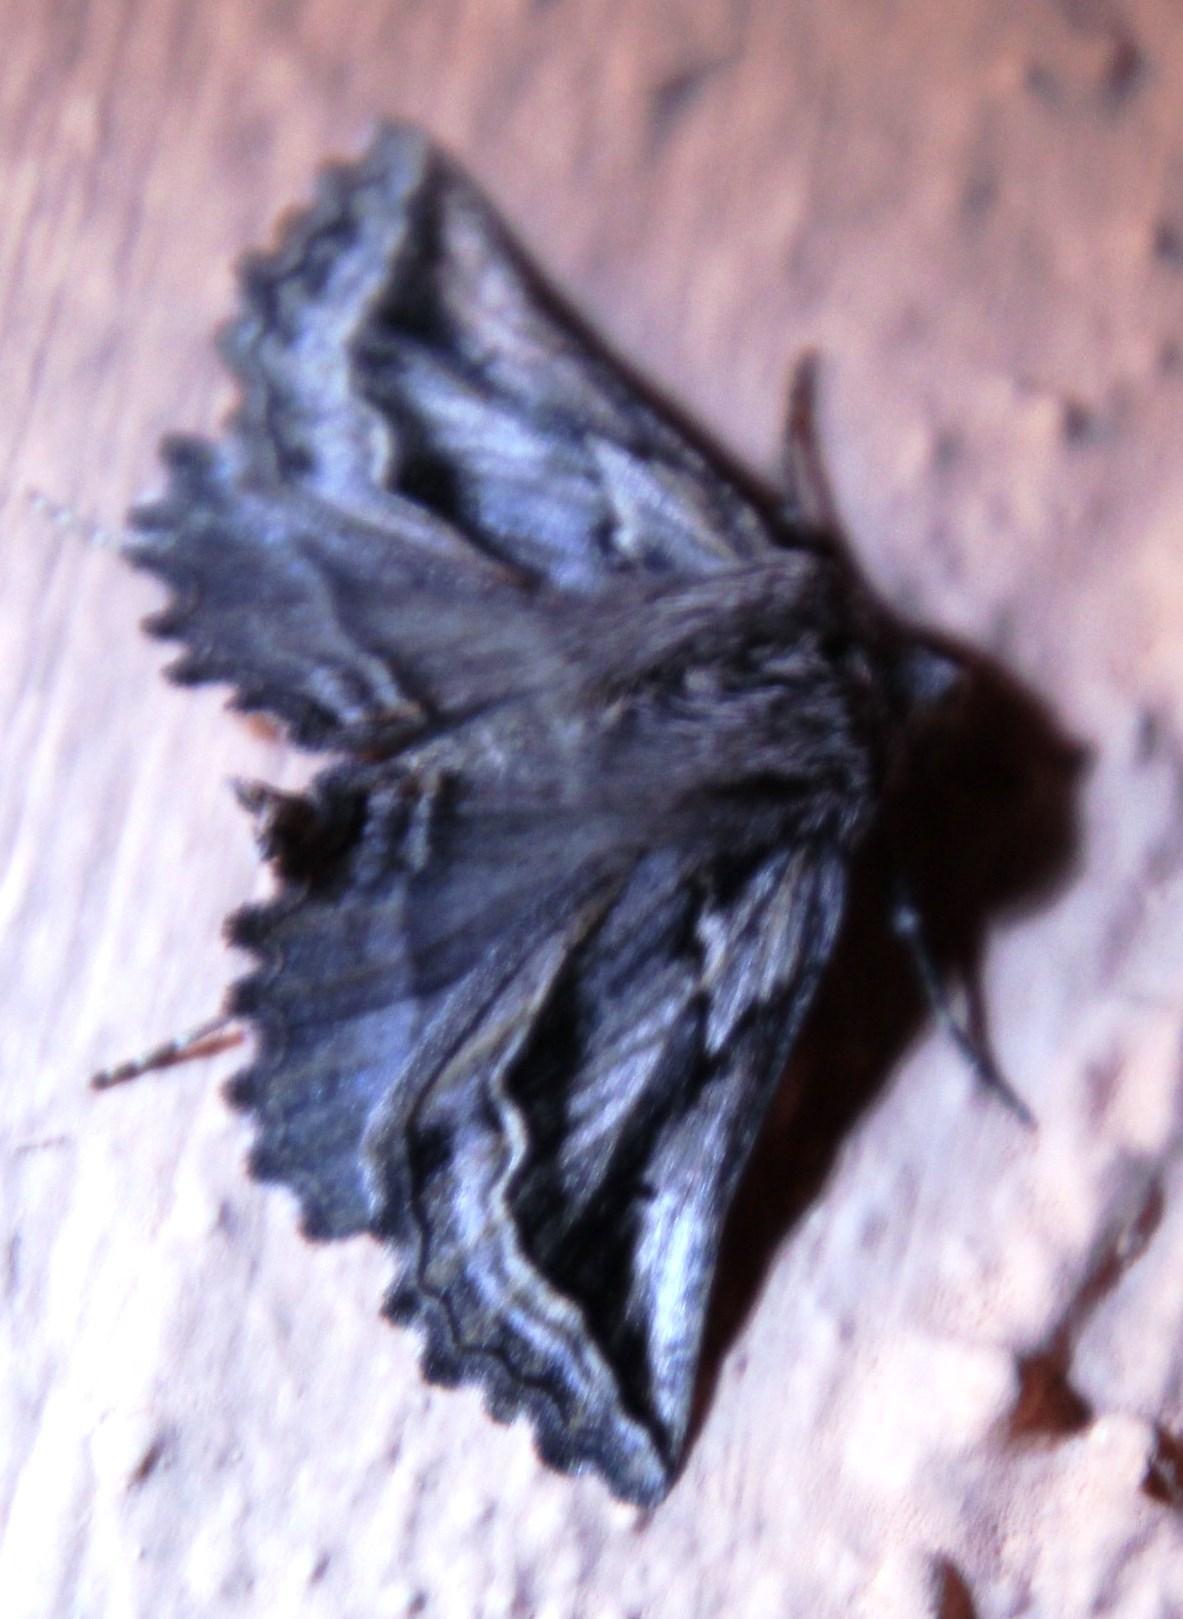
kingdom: Animalia
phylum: Arthropoda
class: Insecta
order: Lepidoptera
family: Geometridae
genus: Axiodes
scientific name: Axiodes
